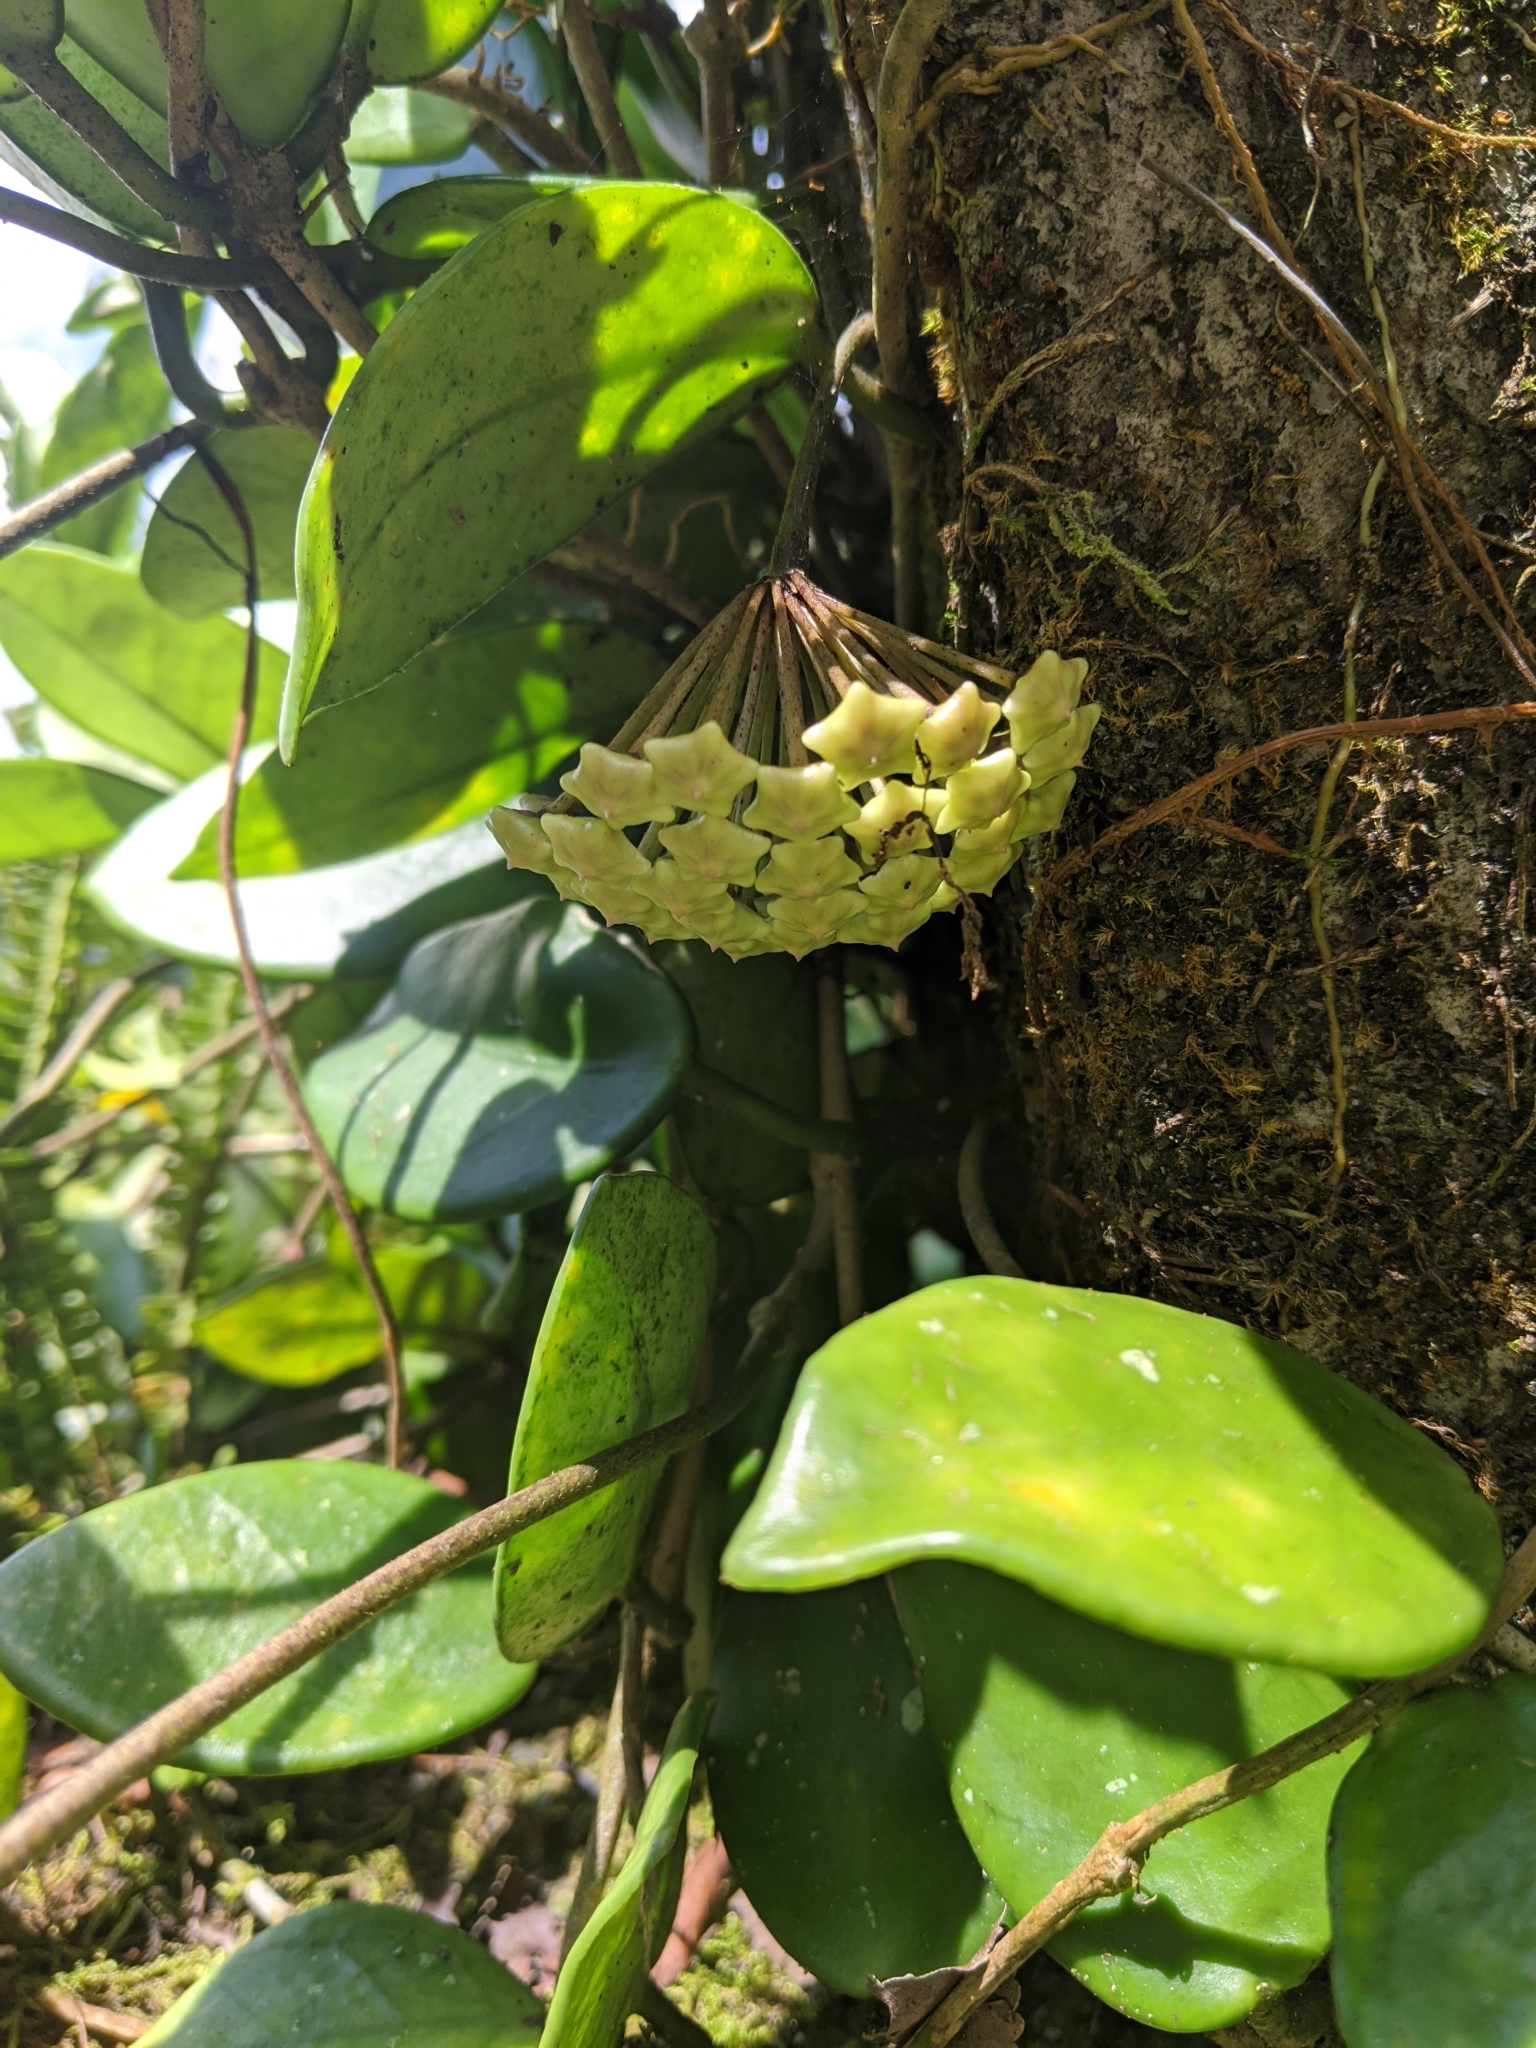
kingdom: Plantae
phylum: Tracheophyta
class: Magnoliopsida
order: Gentianales
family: Apocynaceae
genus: Hoya
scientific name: Hoya carnosa
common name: Honeyplant
